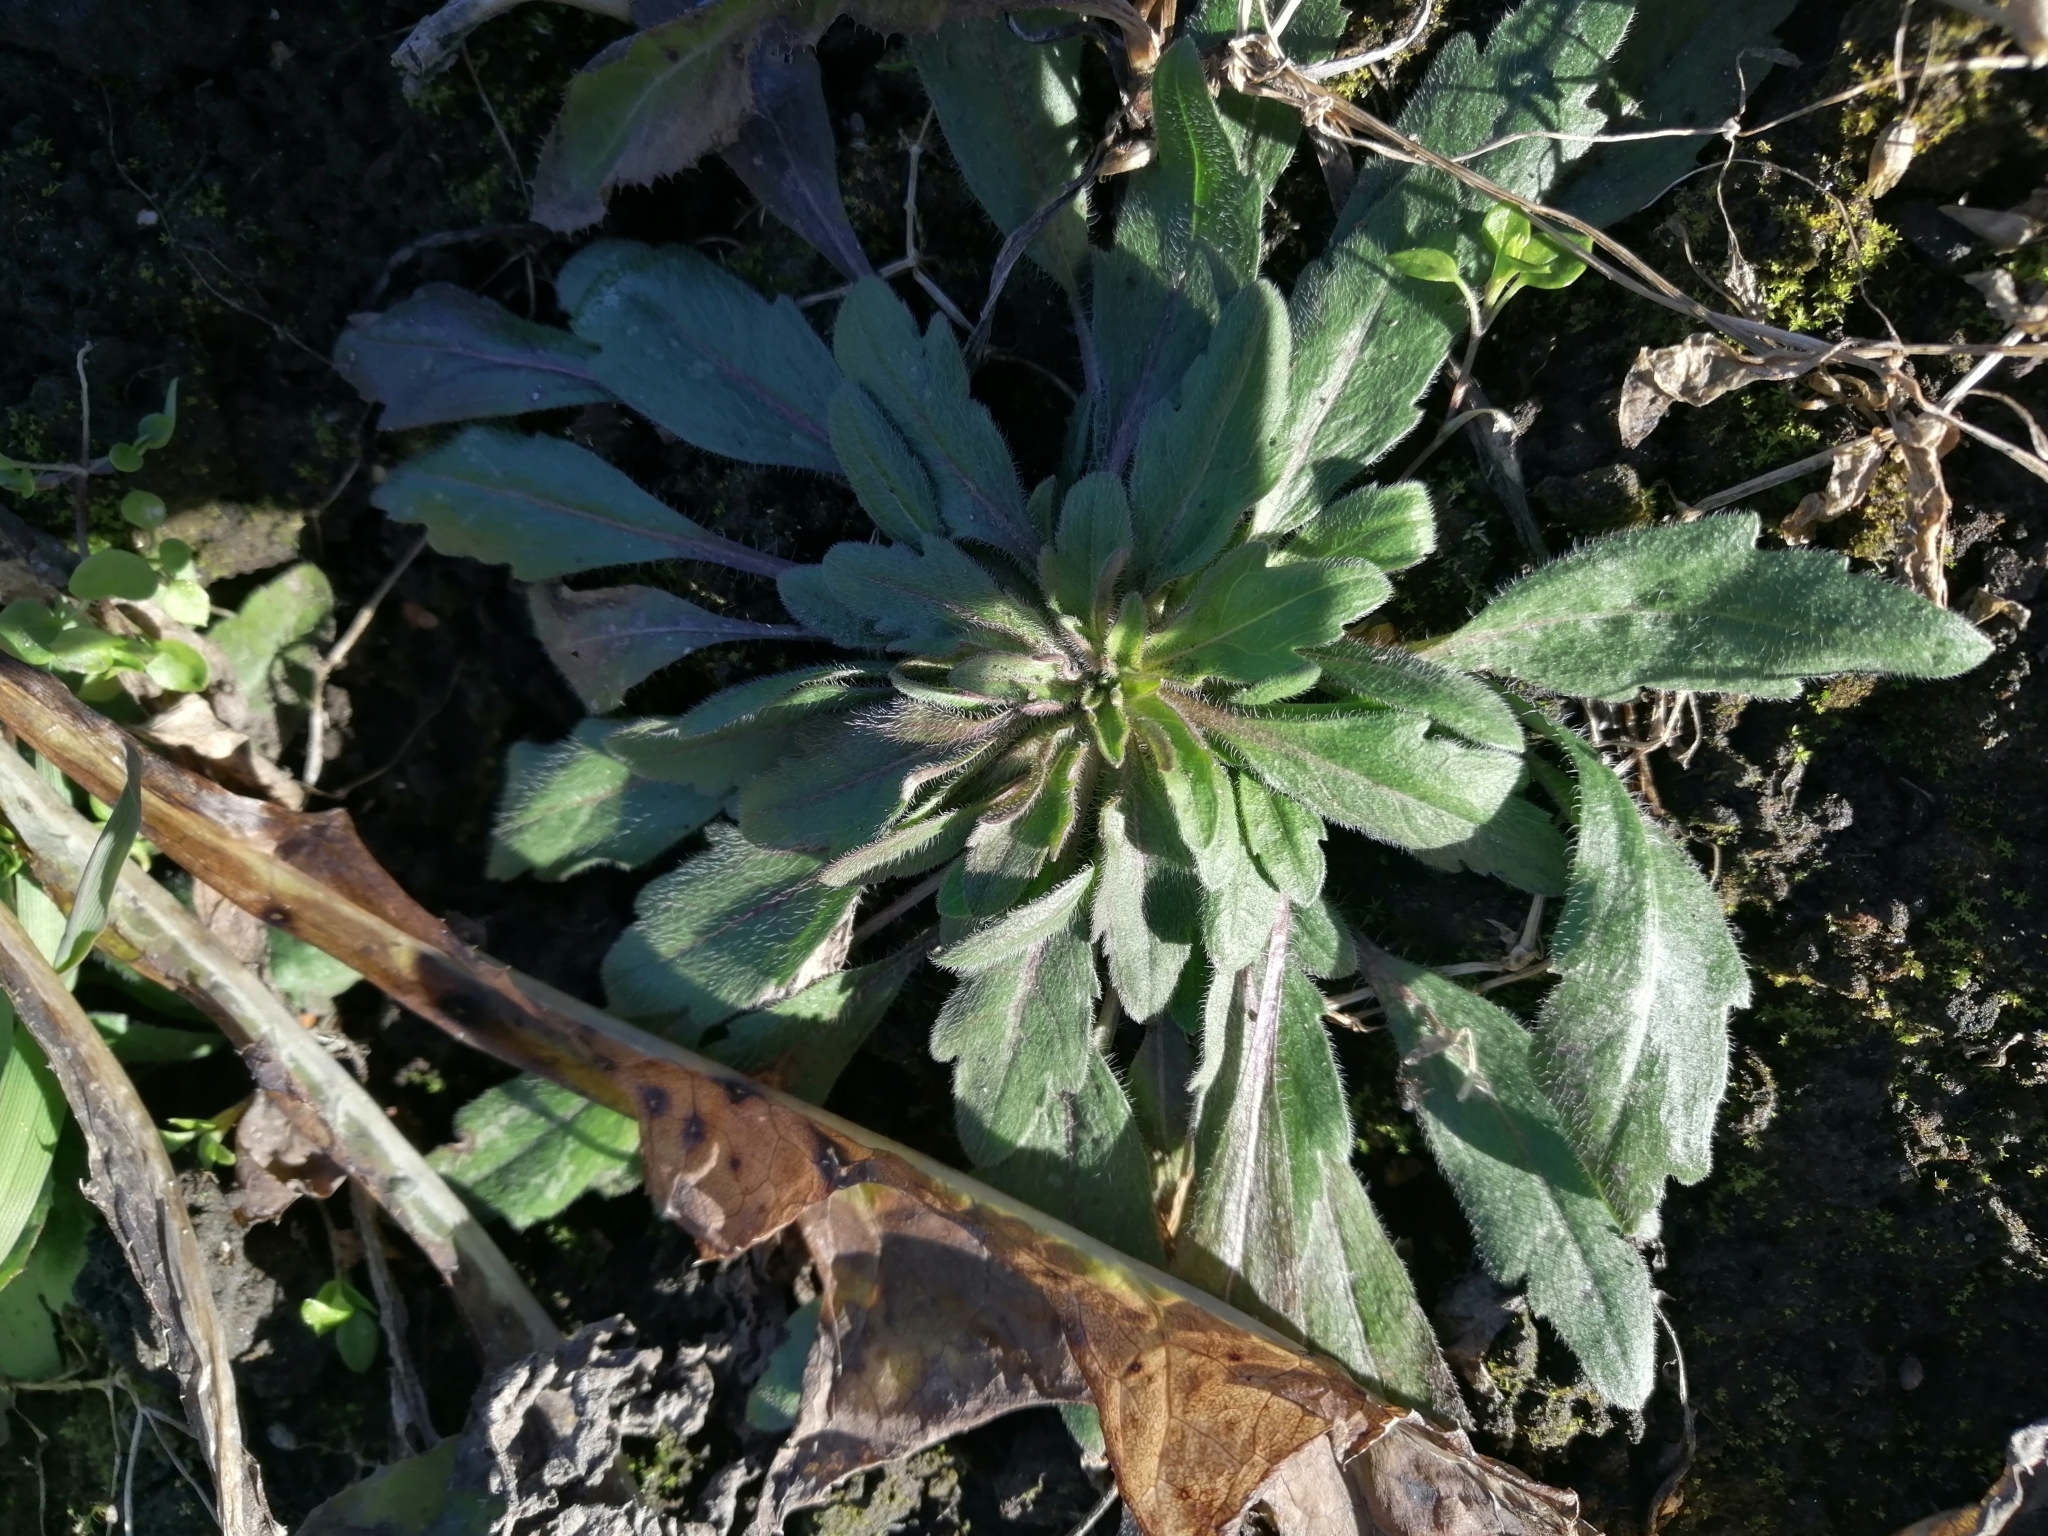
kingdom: Plantae
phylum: Tracheophyta
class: Magnoliopsida
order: Asterales
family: Asteraceae
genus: Erigeron
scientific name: Erigeron canadensis
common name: Canadian fleabane
